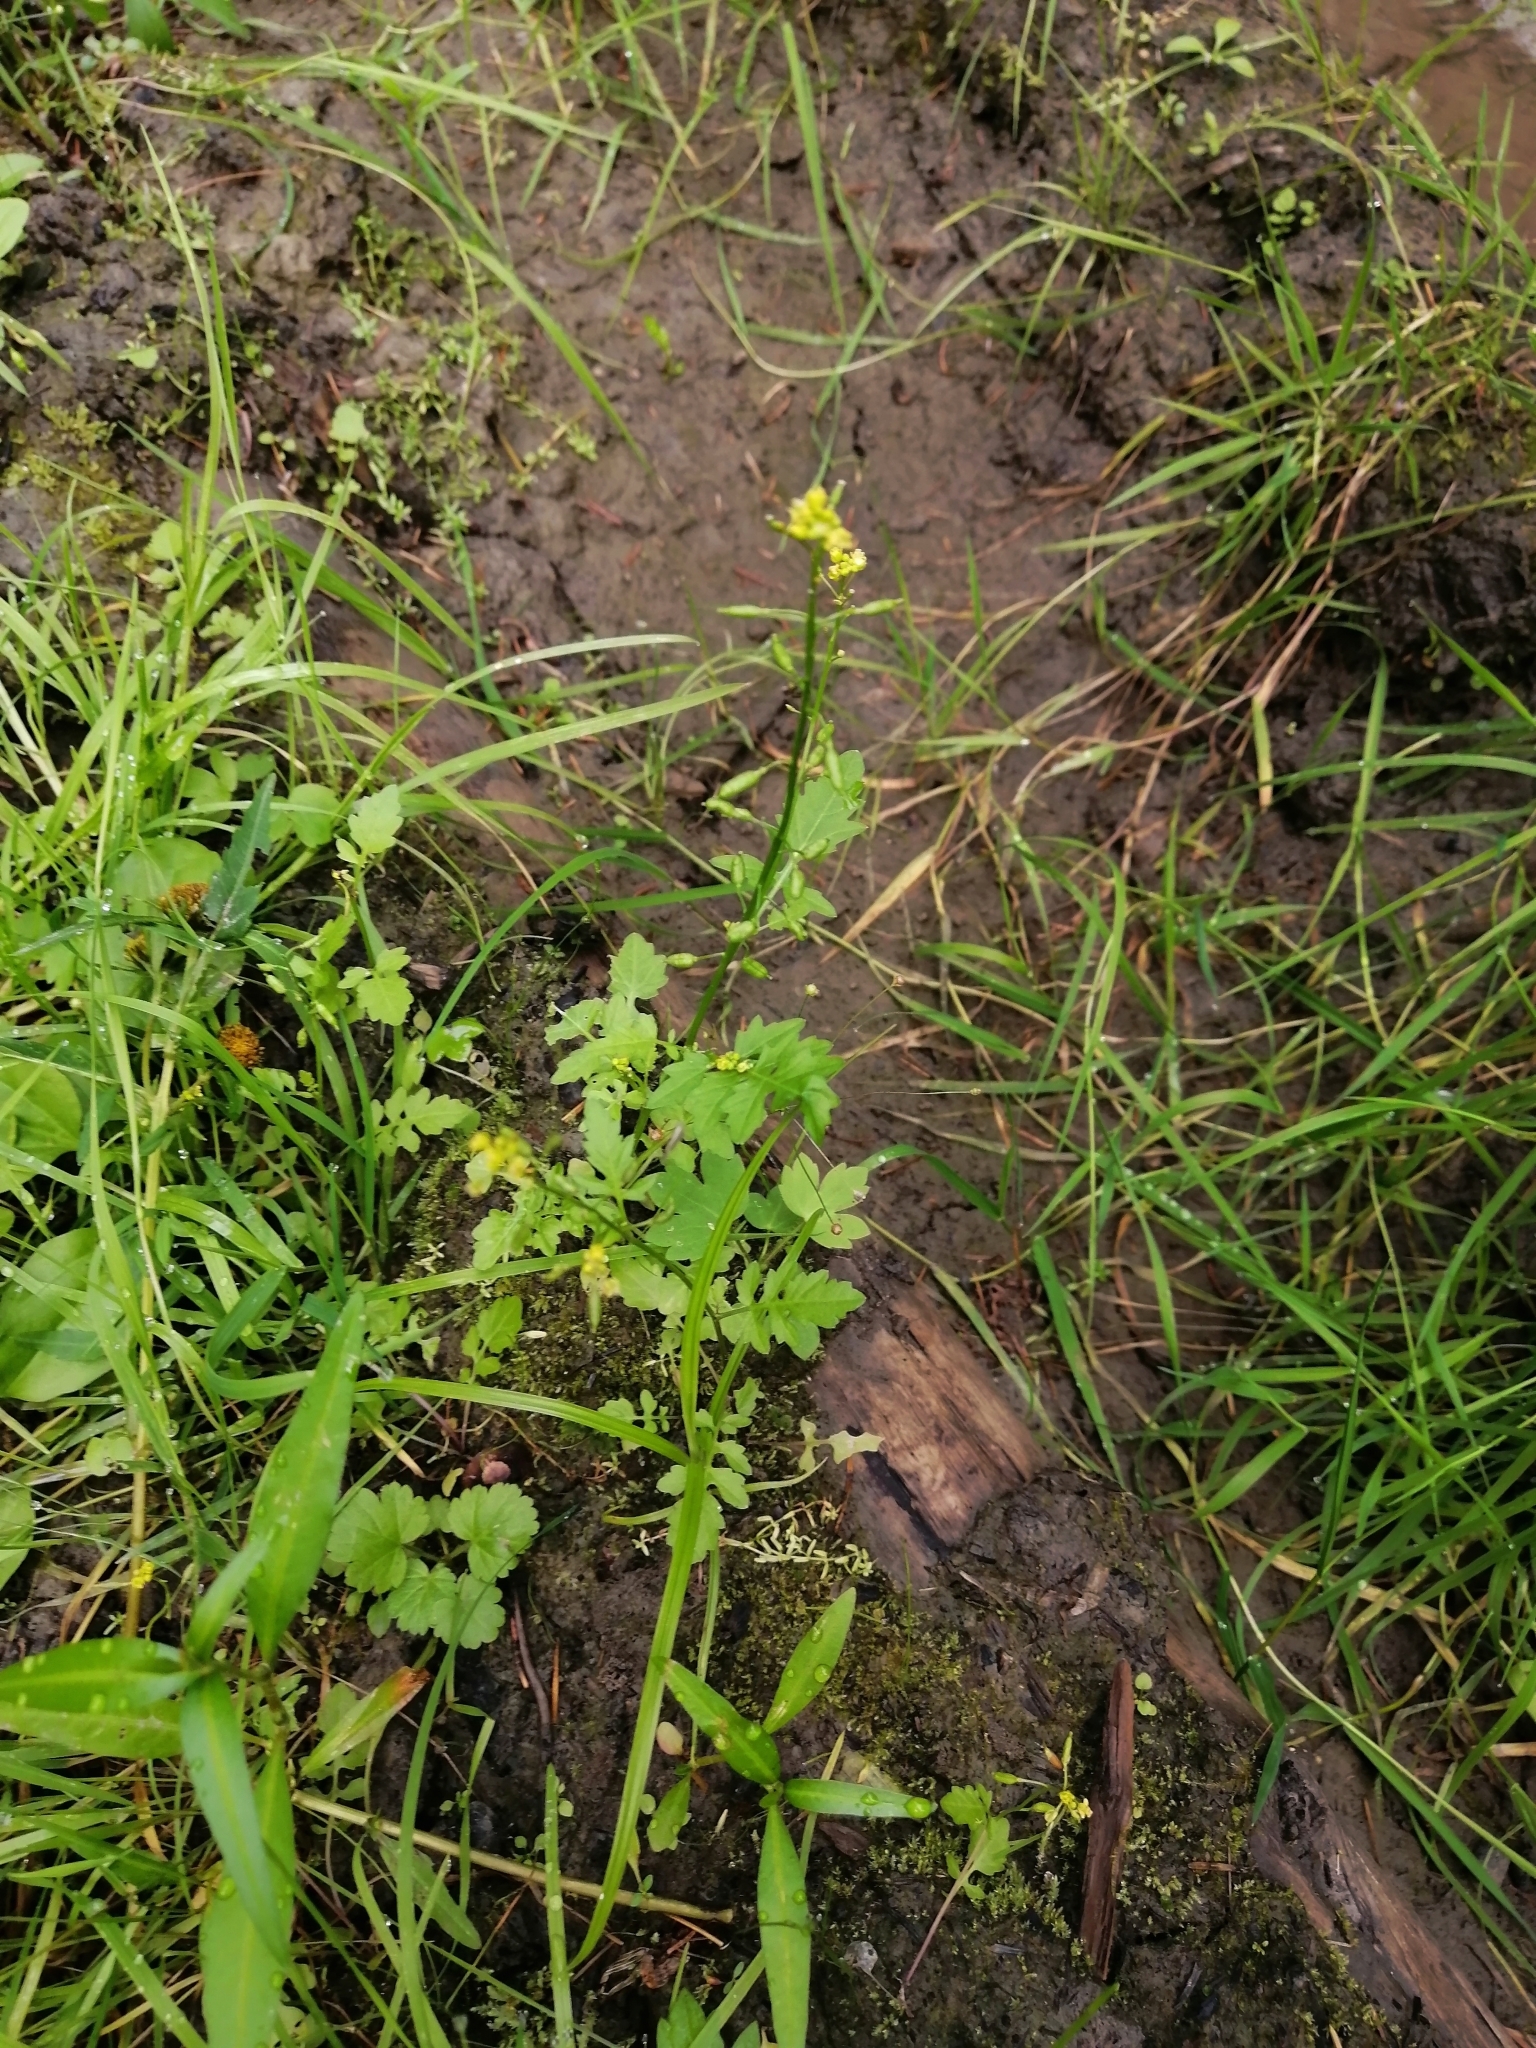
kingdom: Plantae
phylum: Tracheophyta
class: Magnoliopsida
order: Brassicales
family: Brassicaceae
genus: Rorippa
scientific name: Rorippa palustris
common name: Marsh yellow-cress
